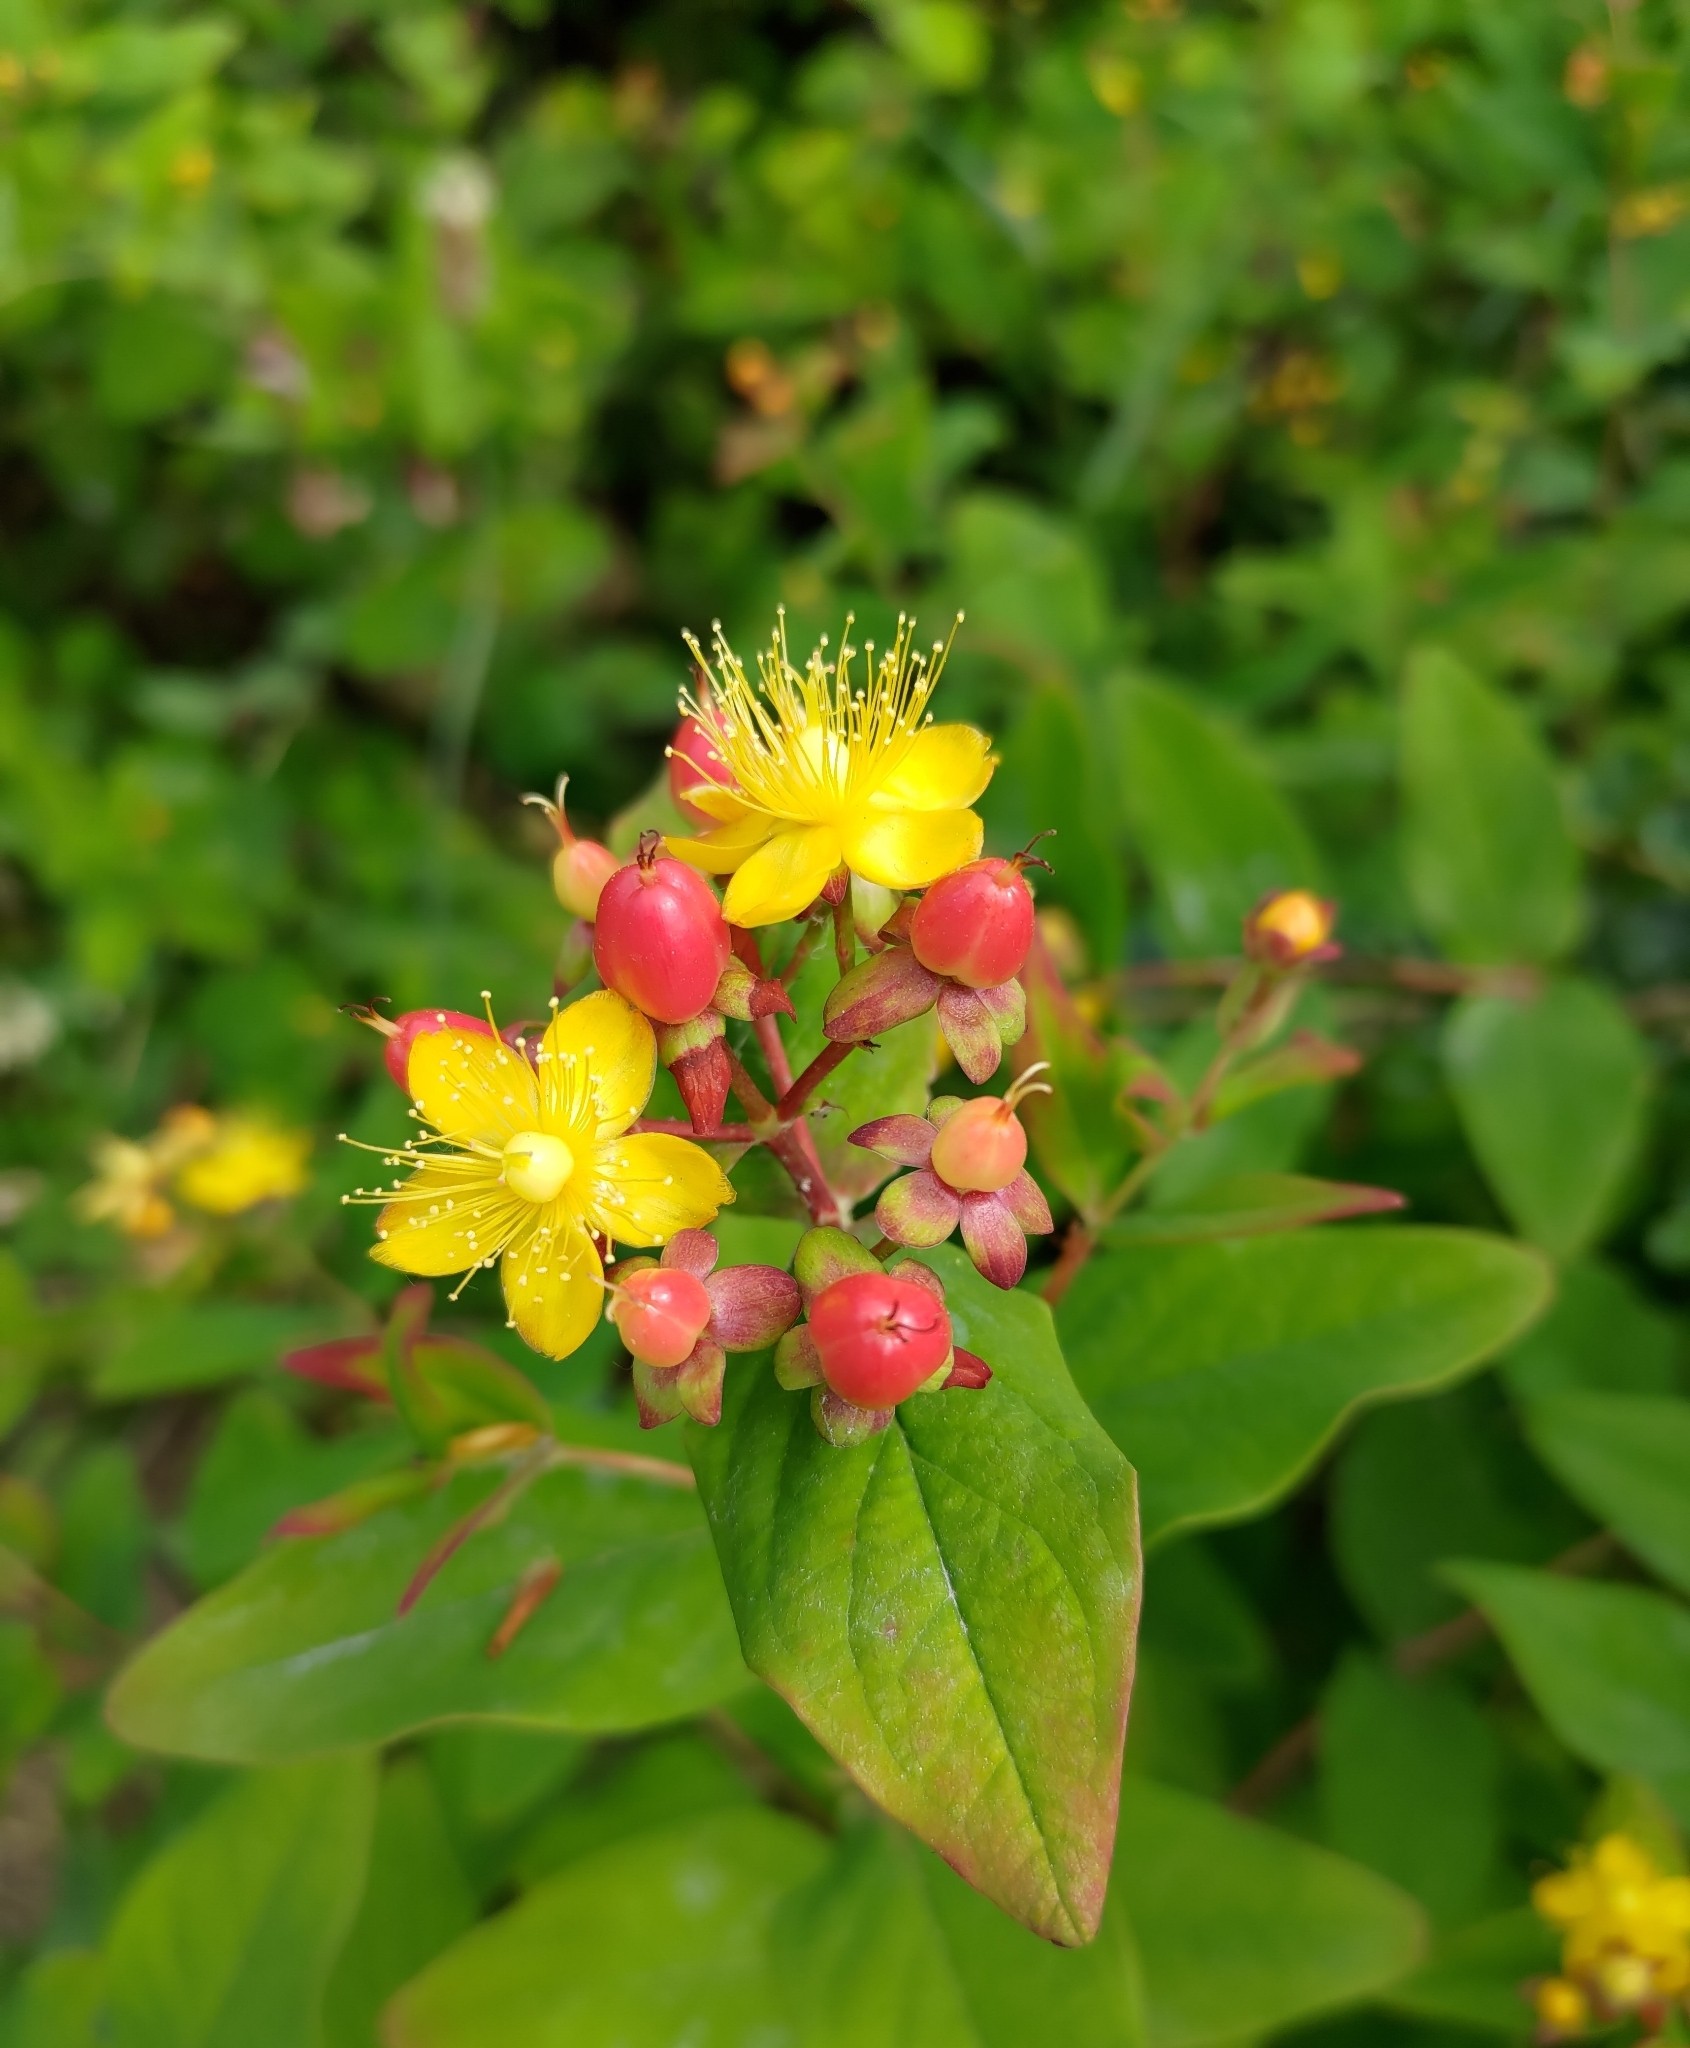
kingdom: Plantae
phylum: Tracheophyta
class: Magnoliopsida
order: Malpighiales
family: Hypericaceae
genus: Hypericum
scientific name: Hypericum androsaemum
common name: Sweet-amber
